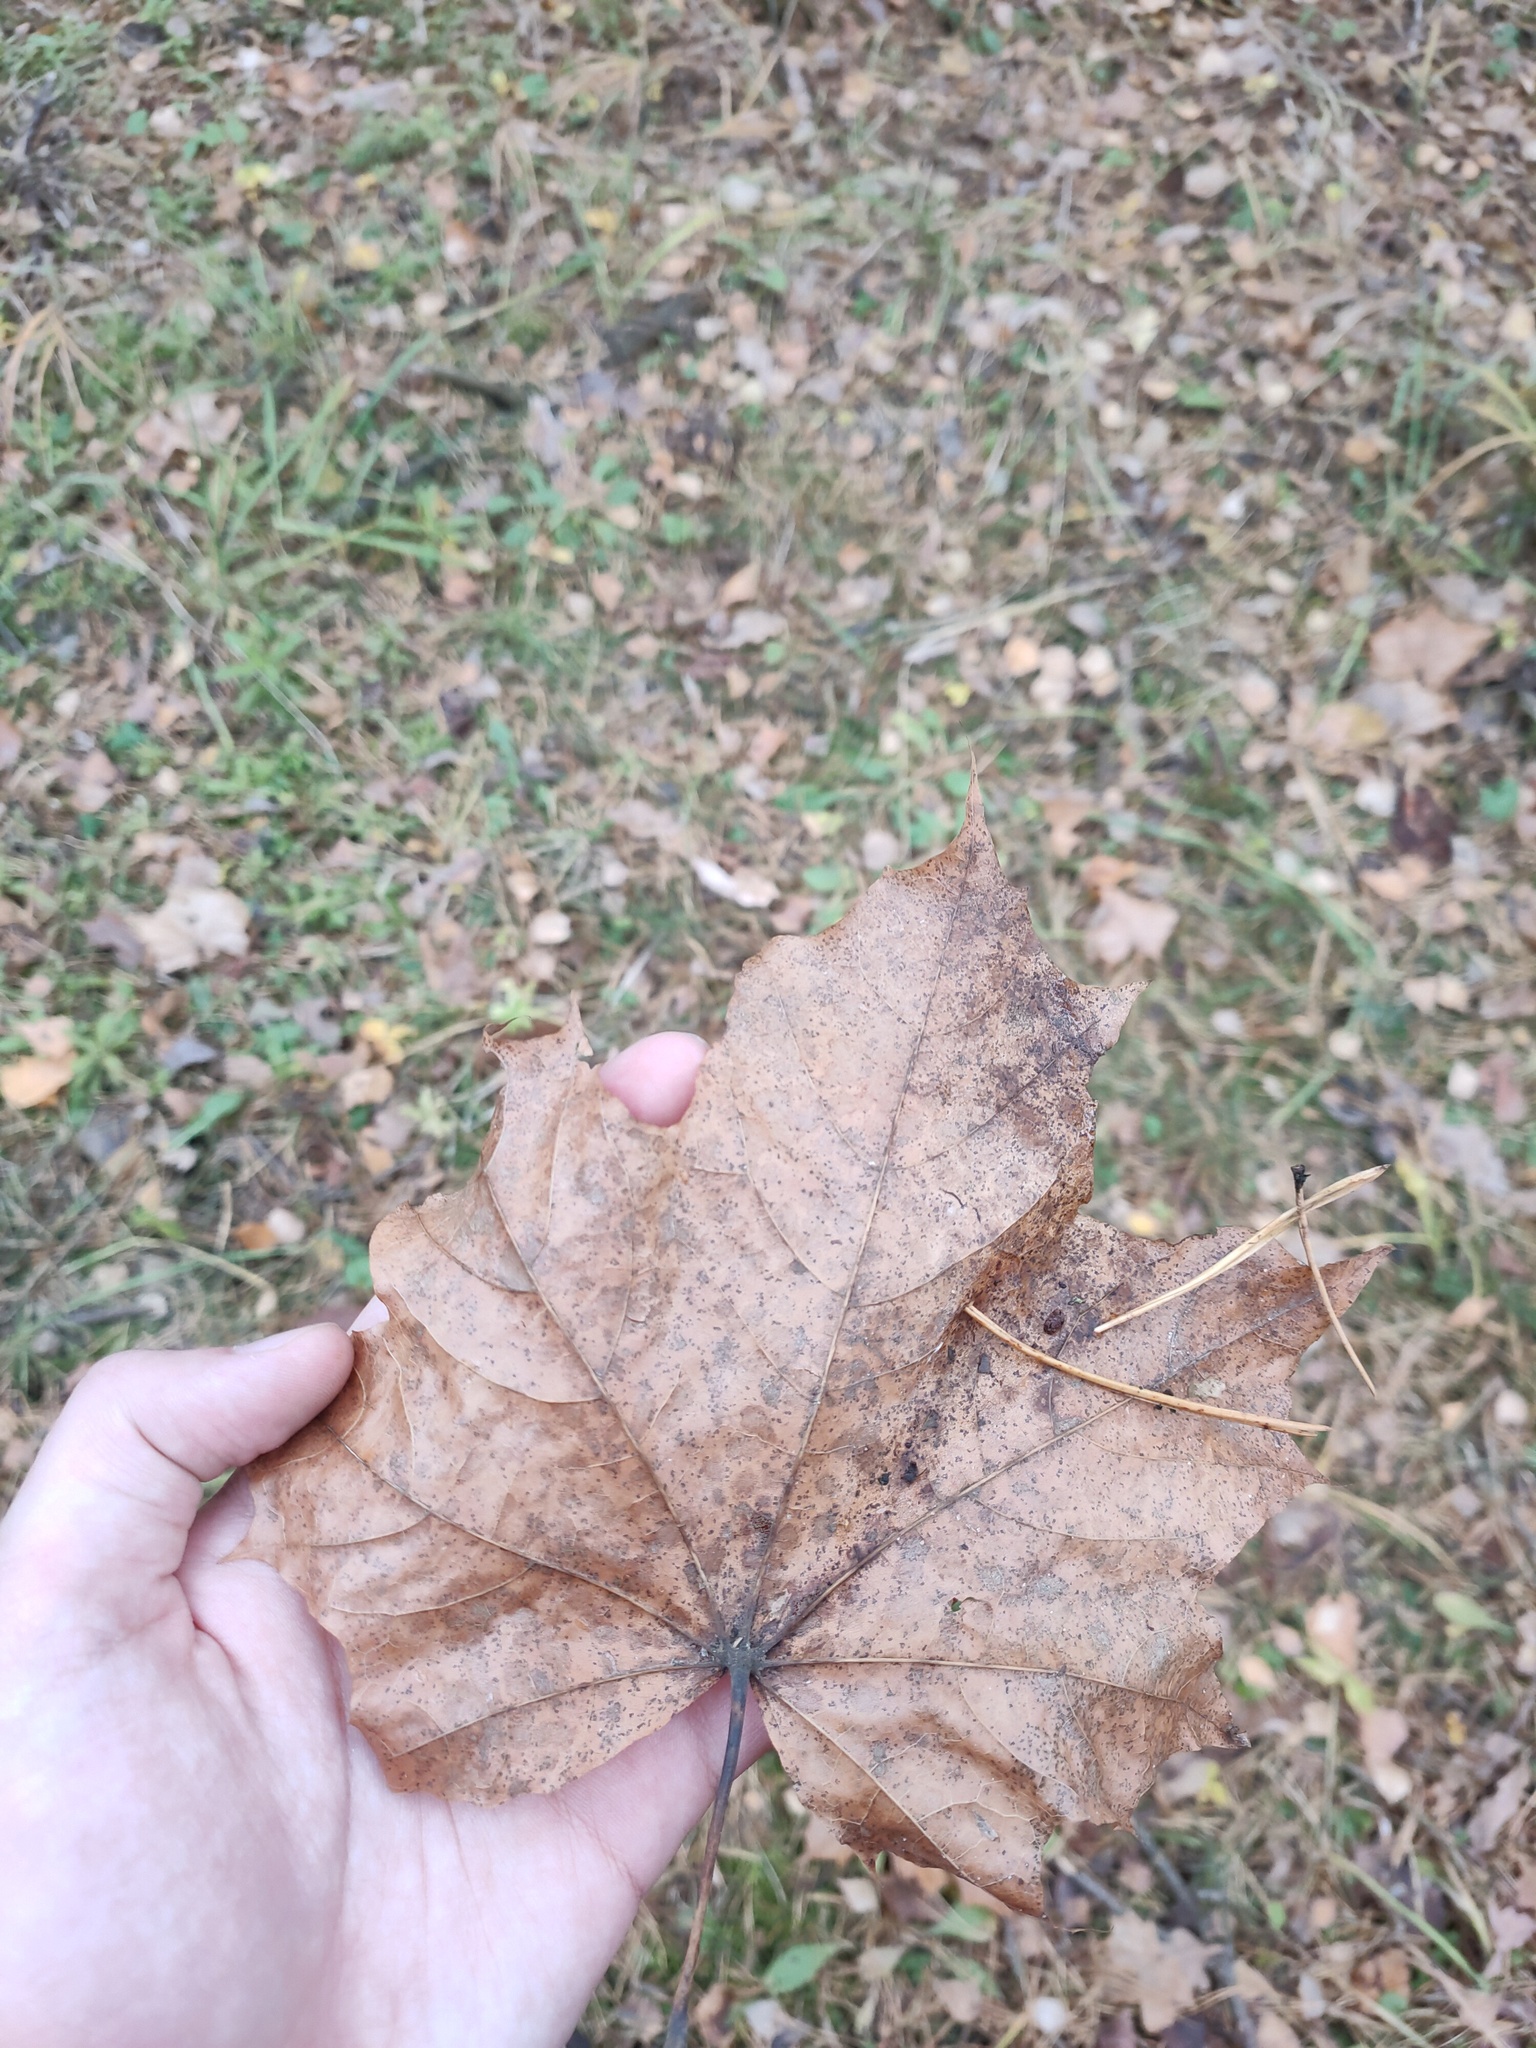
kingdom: Plantae
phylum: Tracheophyta
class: Magnoliopsida
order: Sapindales
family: Sapindaceae
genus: Acer
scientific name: Acer platanoides
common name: Norway maple
